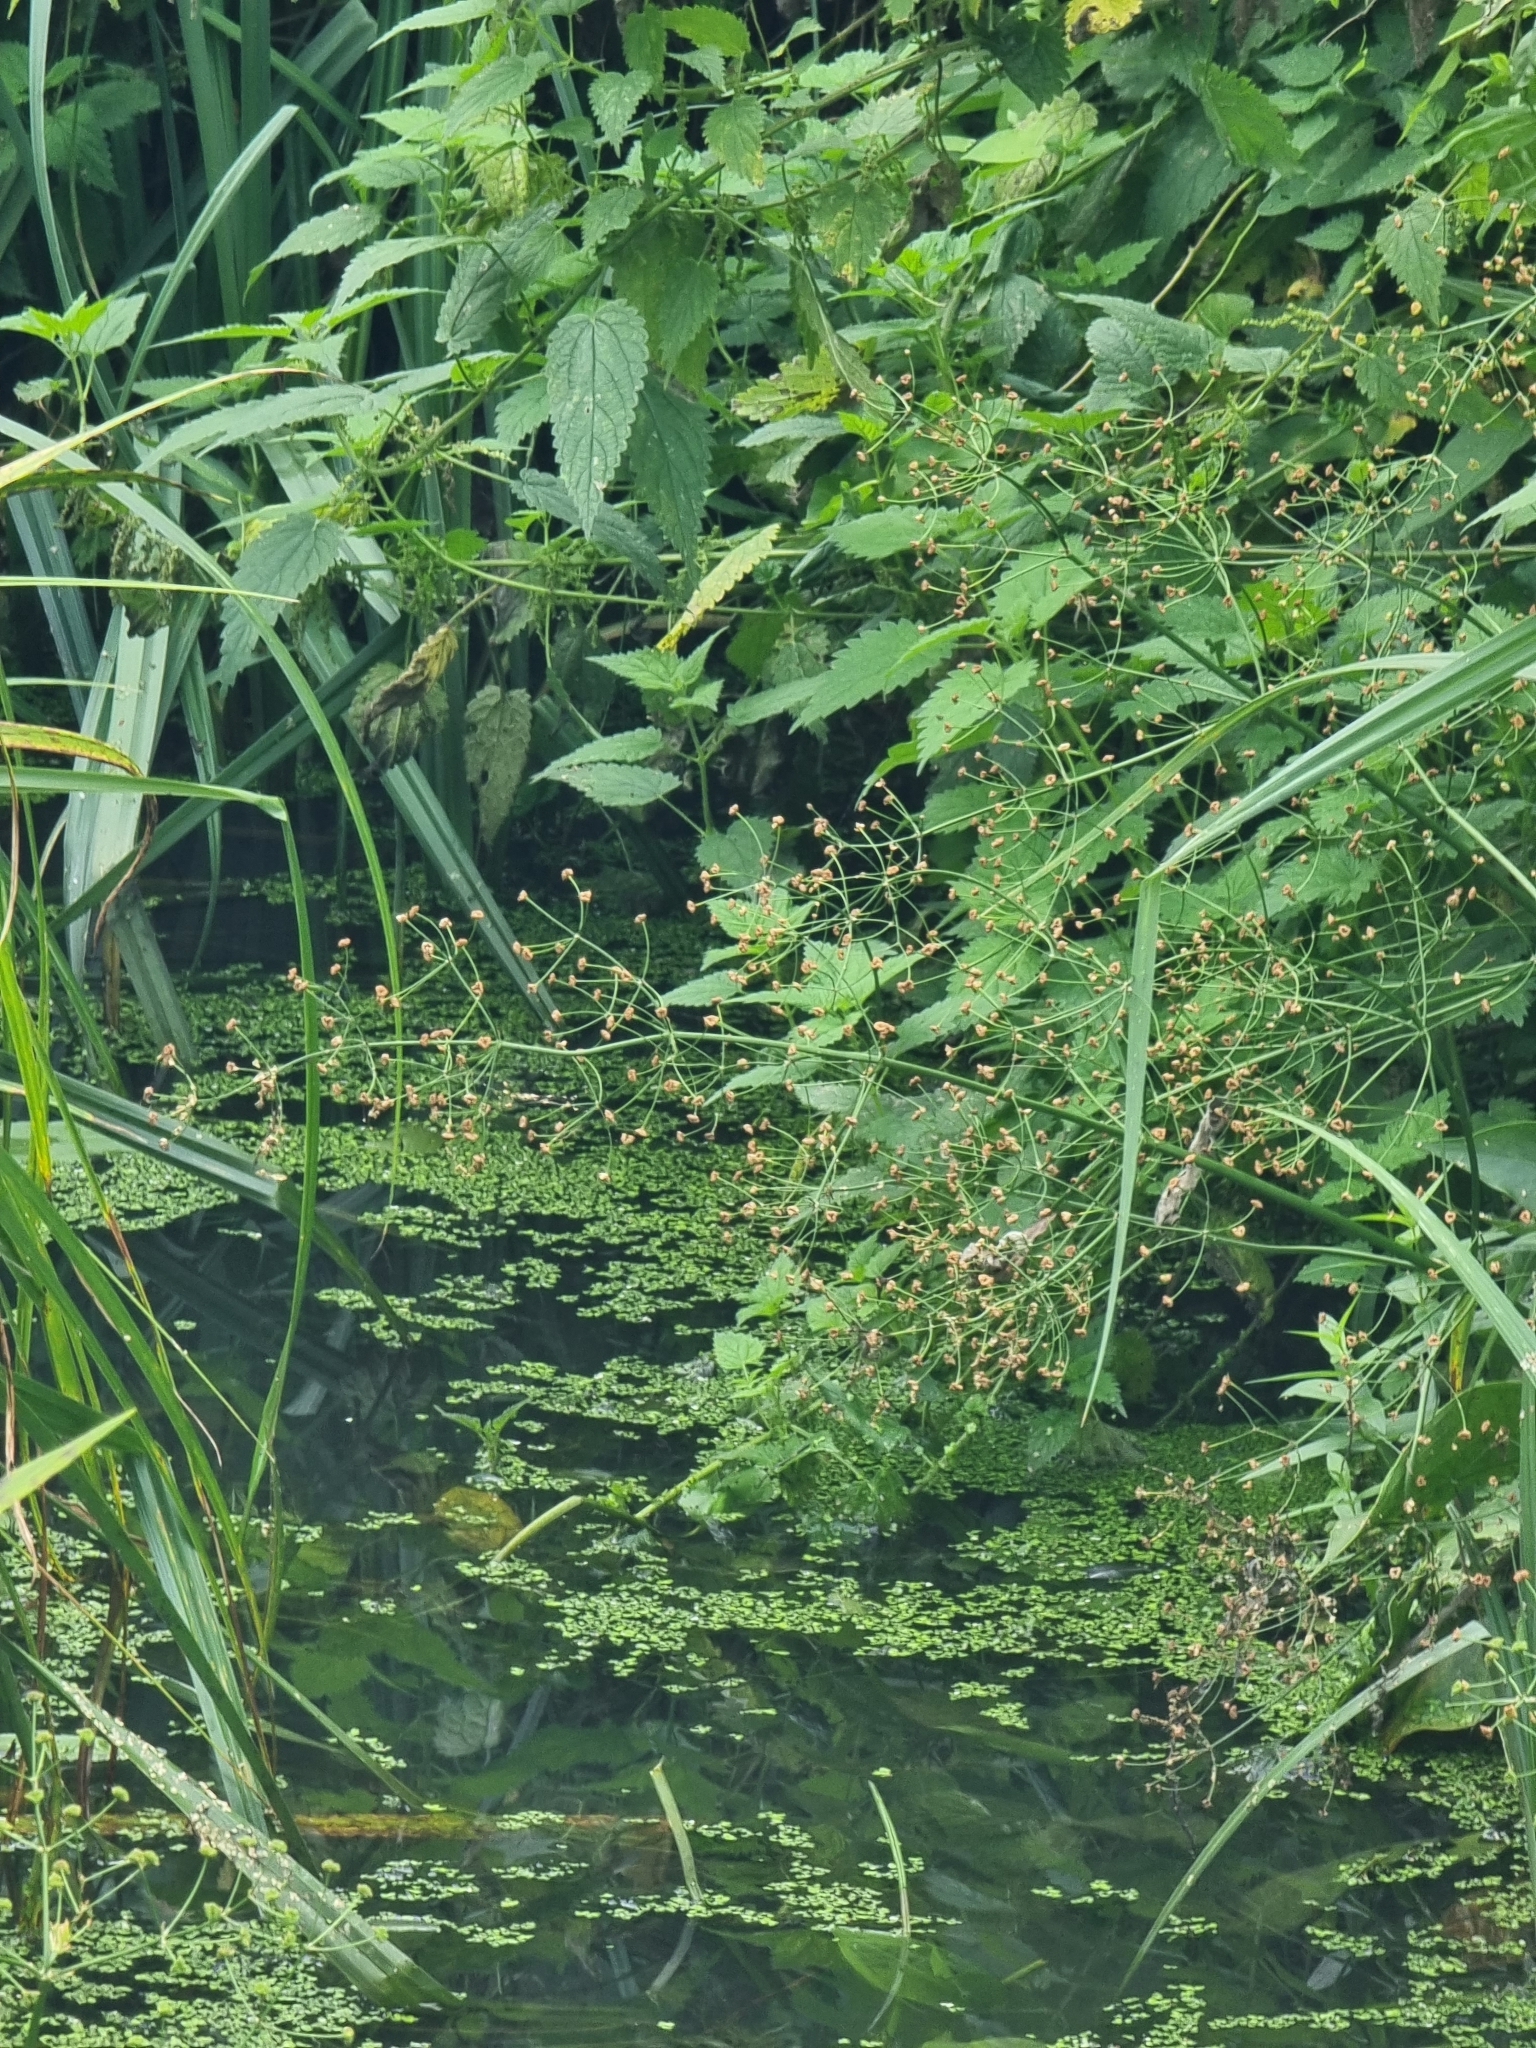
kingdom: Plantae
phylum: Tracheophyta
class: Liliopsida
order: Alismatales
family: Alismataceae
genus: Alisma
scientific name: Alisma plantago-aquatica
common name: Water-plantain
